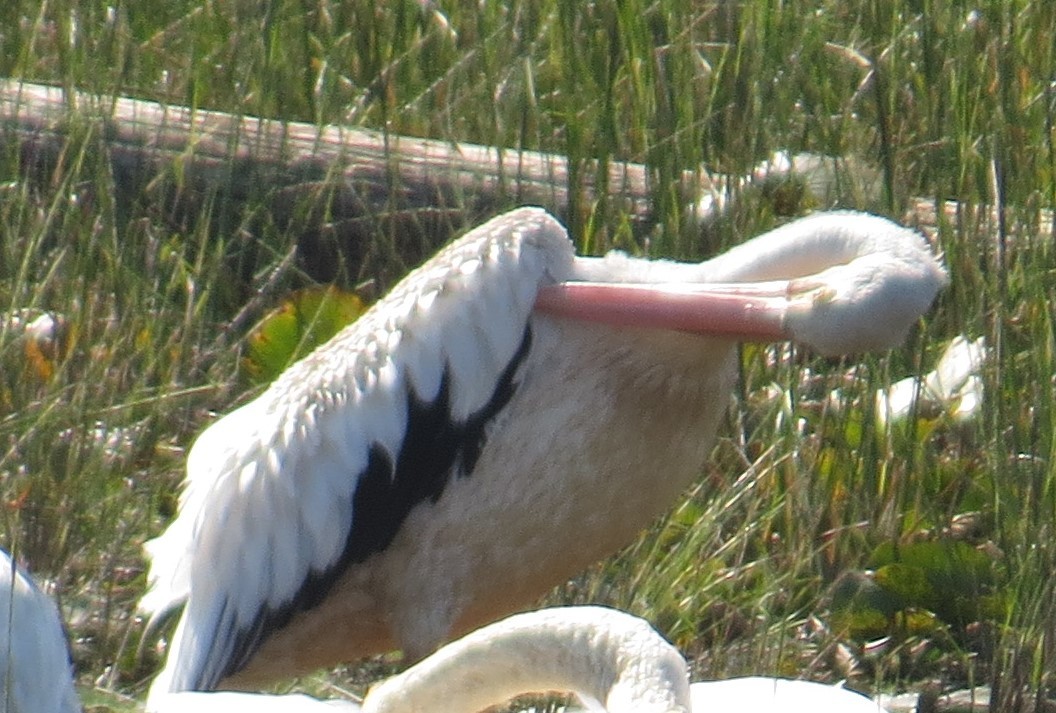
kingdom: Animalia
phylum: Chordata
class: Aves
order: Pelecaniformes
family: Pelecanidae
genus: Pelecanus
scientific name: Pelecanus erythrorhynchos
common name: American white pelican
